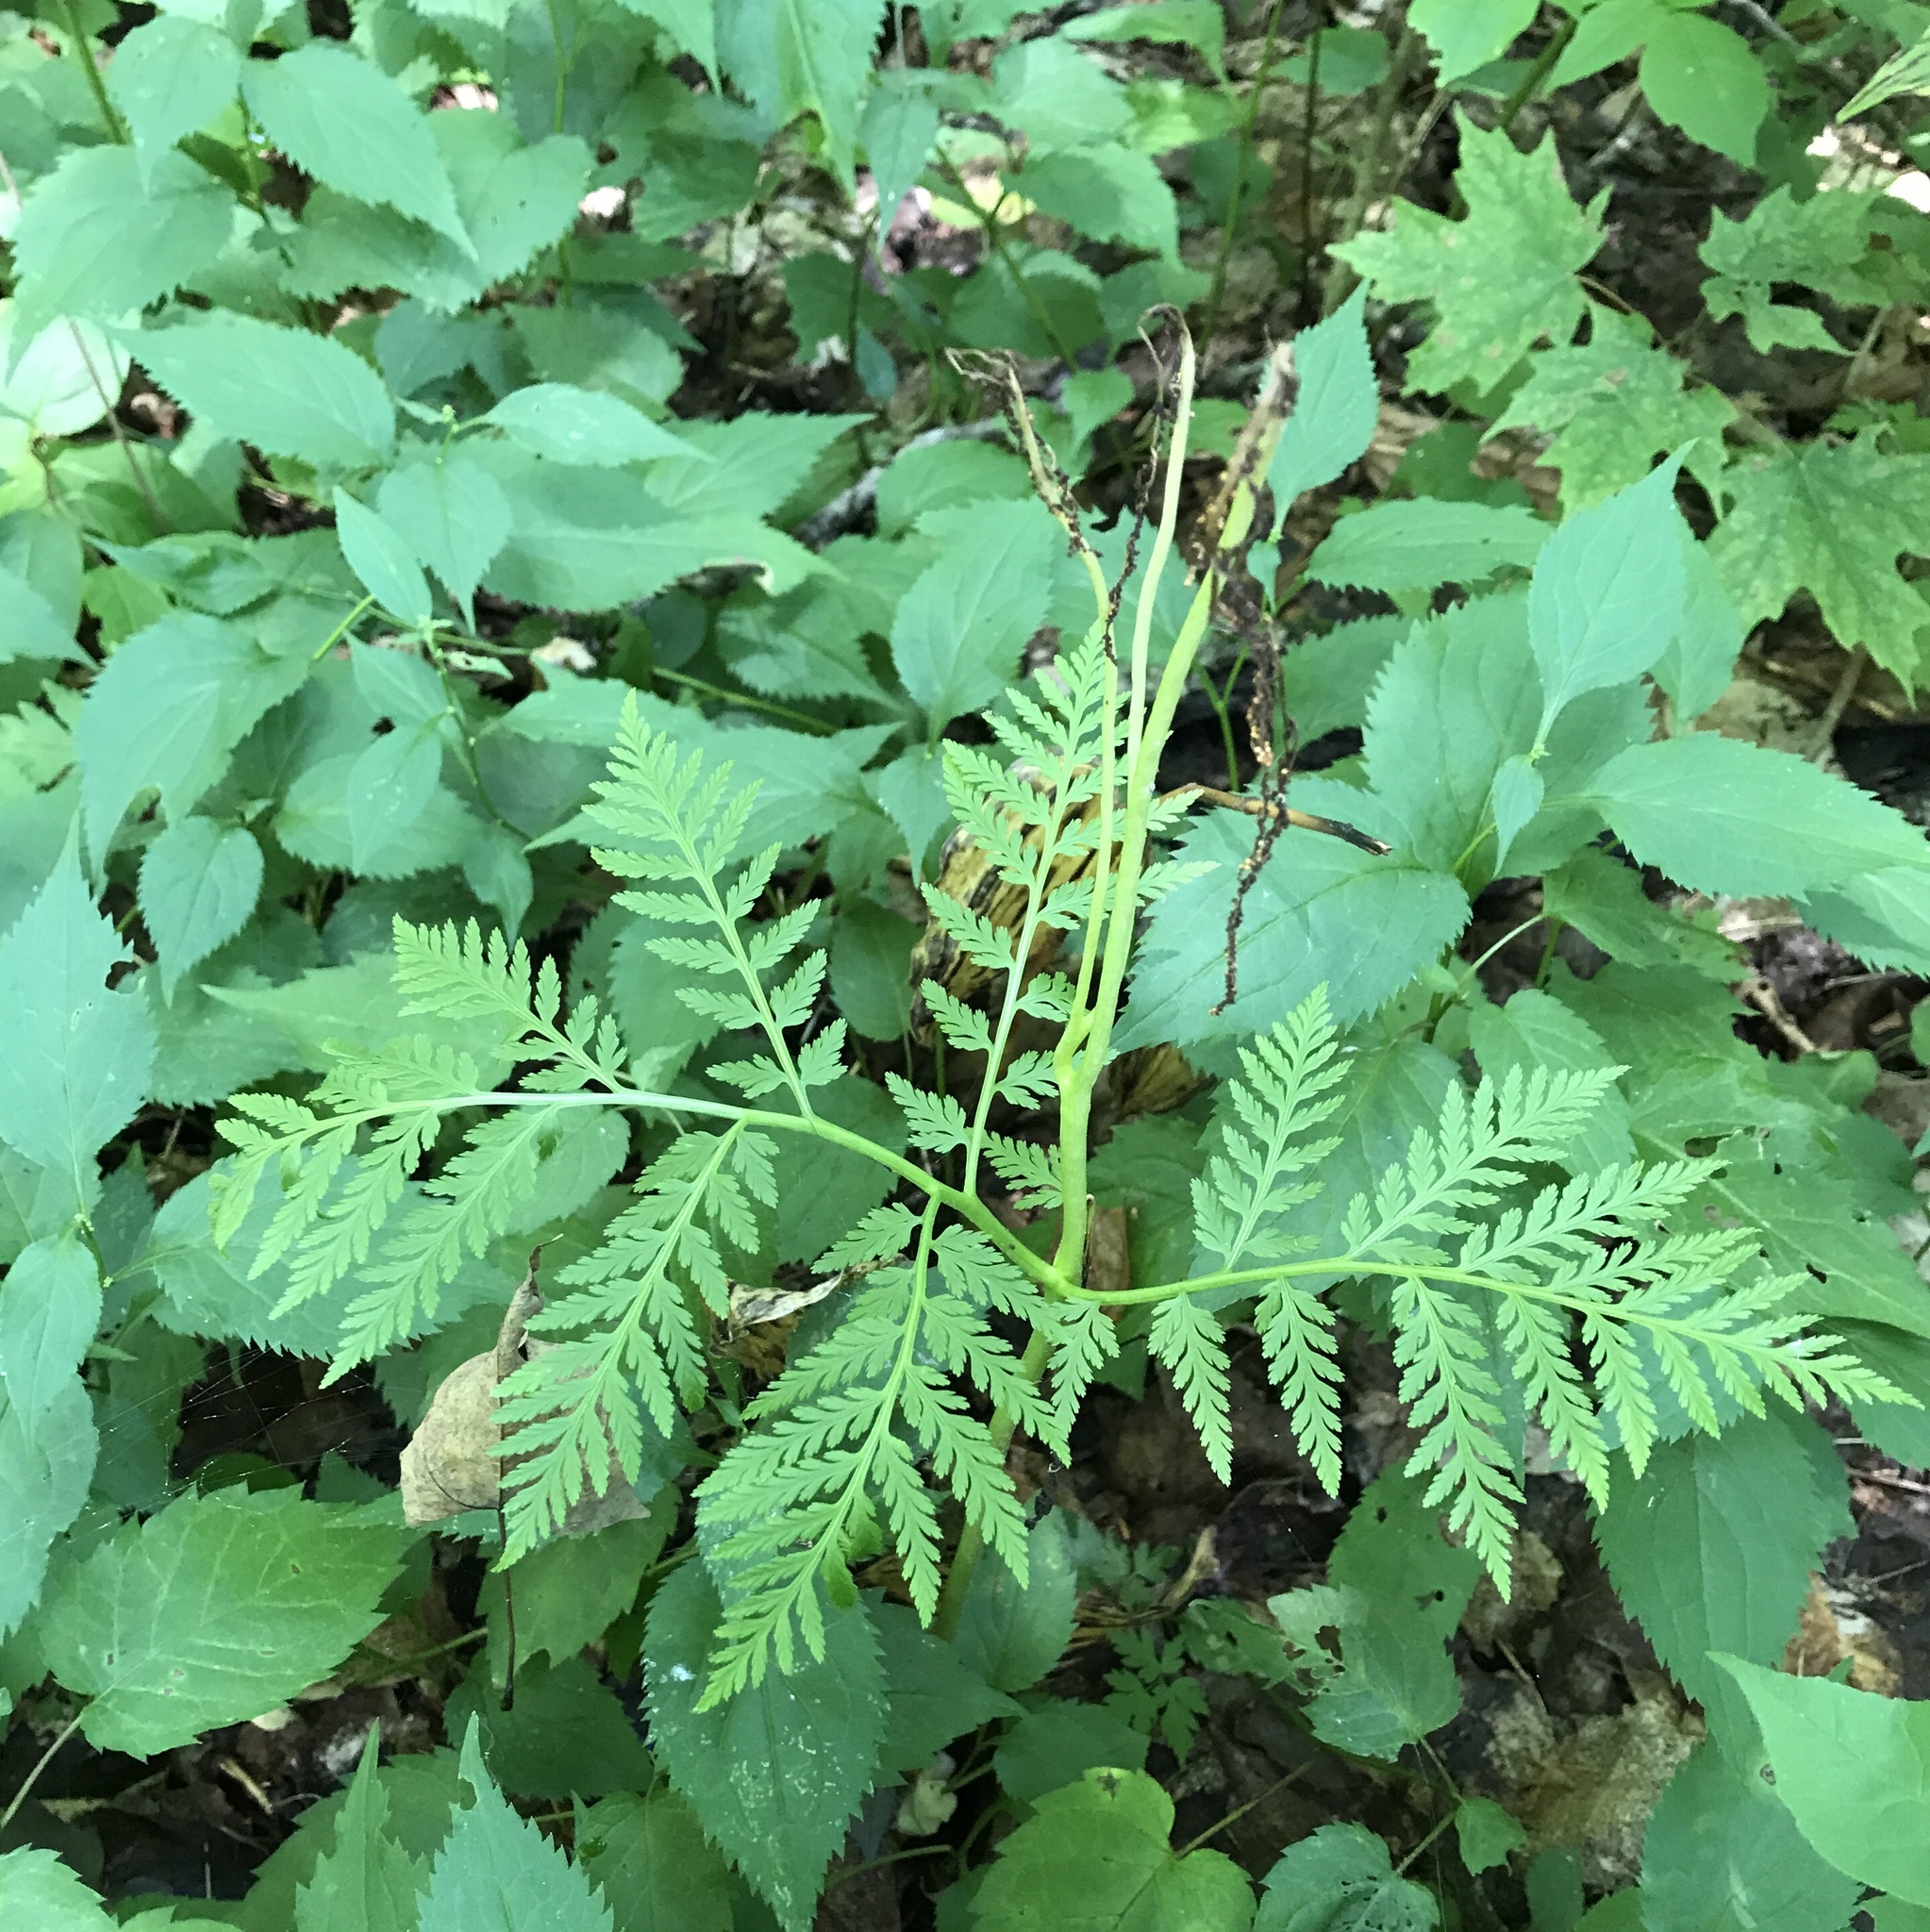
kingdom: Plantae
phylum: Tracheophyta
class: Polypodiopsida
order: Ophioglossales
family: Ophioglossaceae
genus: Botrypus
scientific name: Botrypus virginianus
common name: Common grapefern
